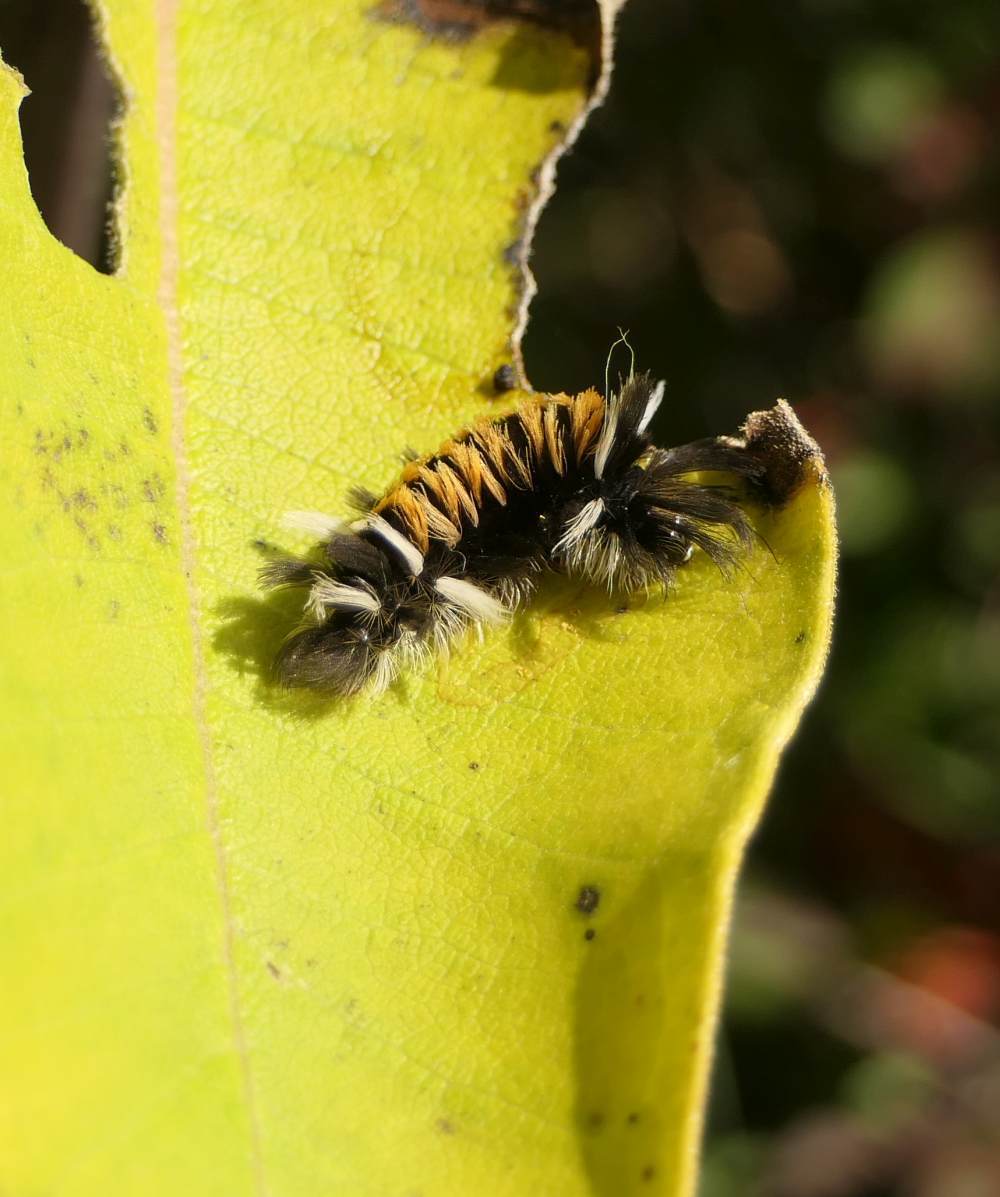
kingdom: Animalia
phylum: Arthropoda
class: Insecta
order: Lepidoptera
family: Erebidae
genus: Euchaetes
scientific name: Euchaetes egle
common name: Milkweed tussock moth
